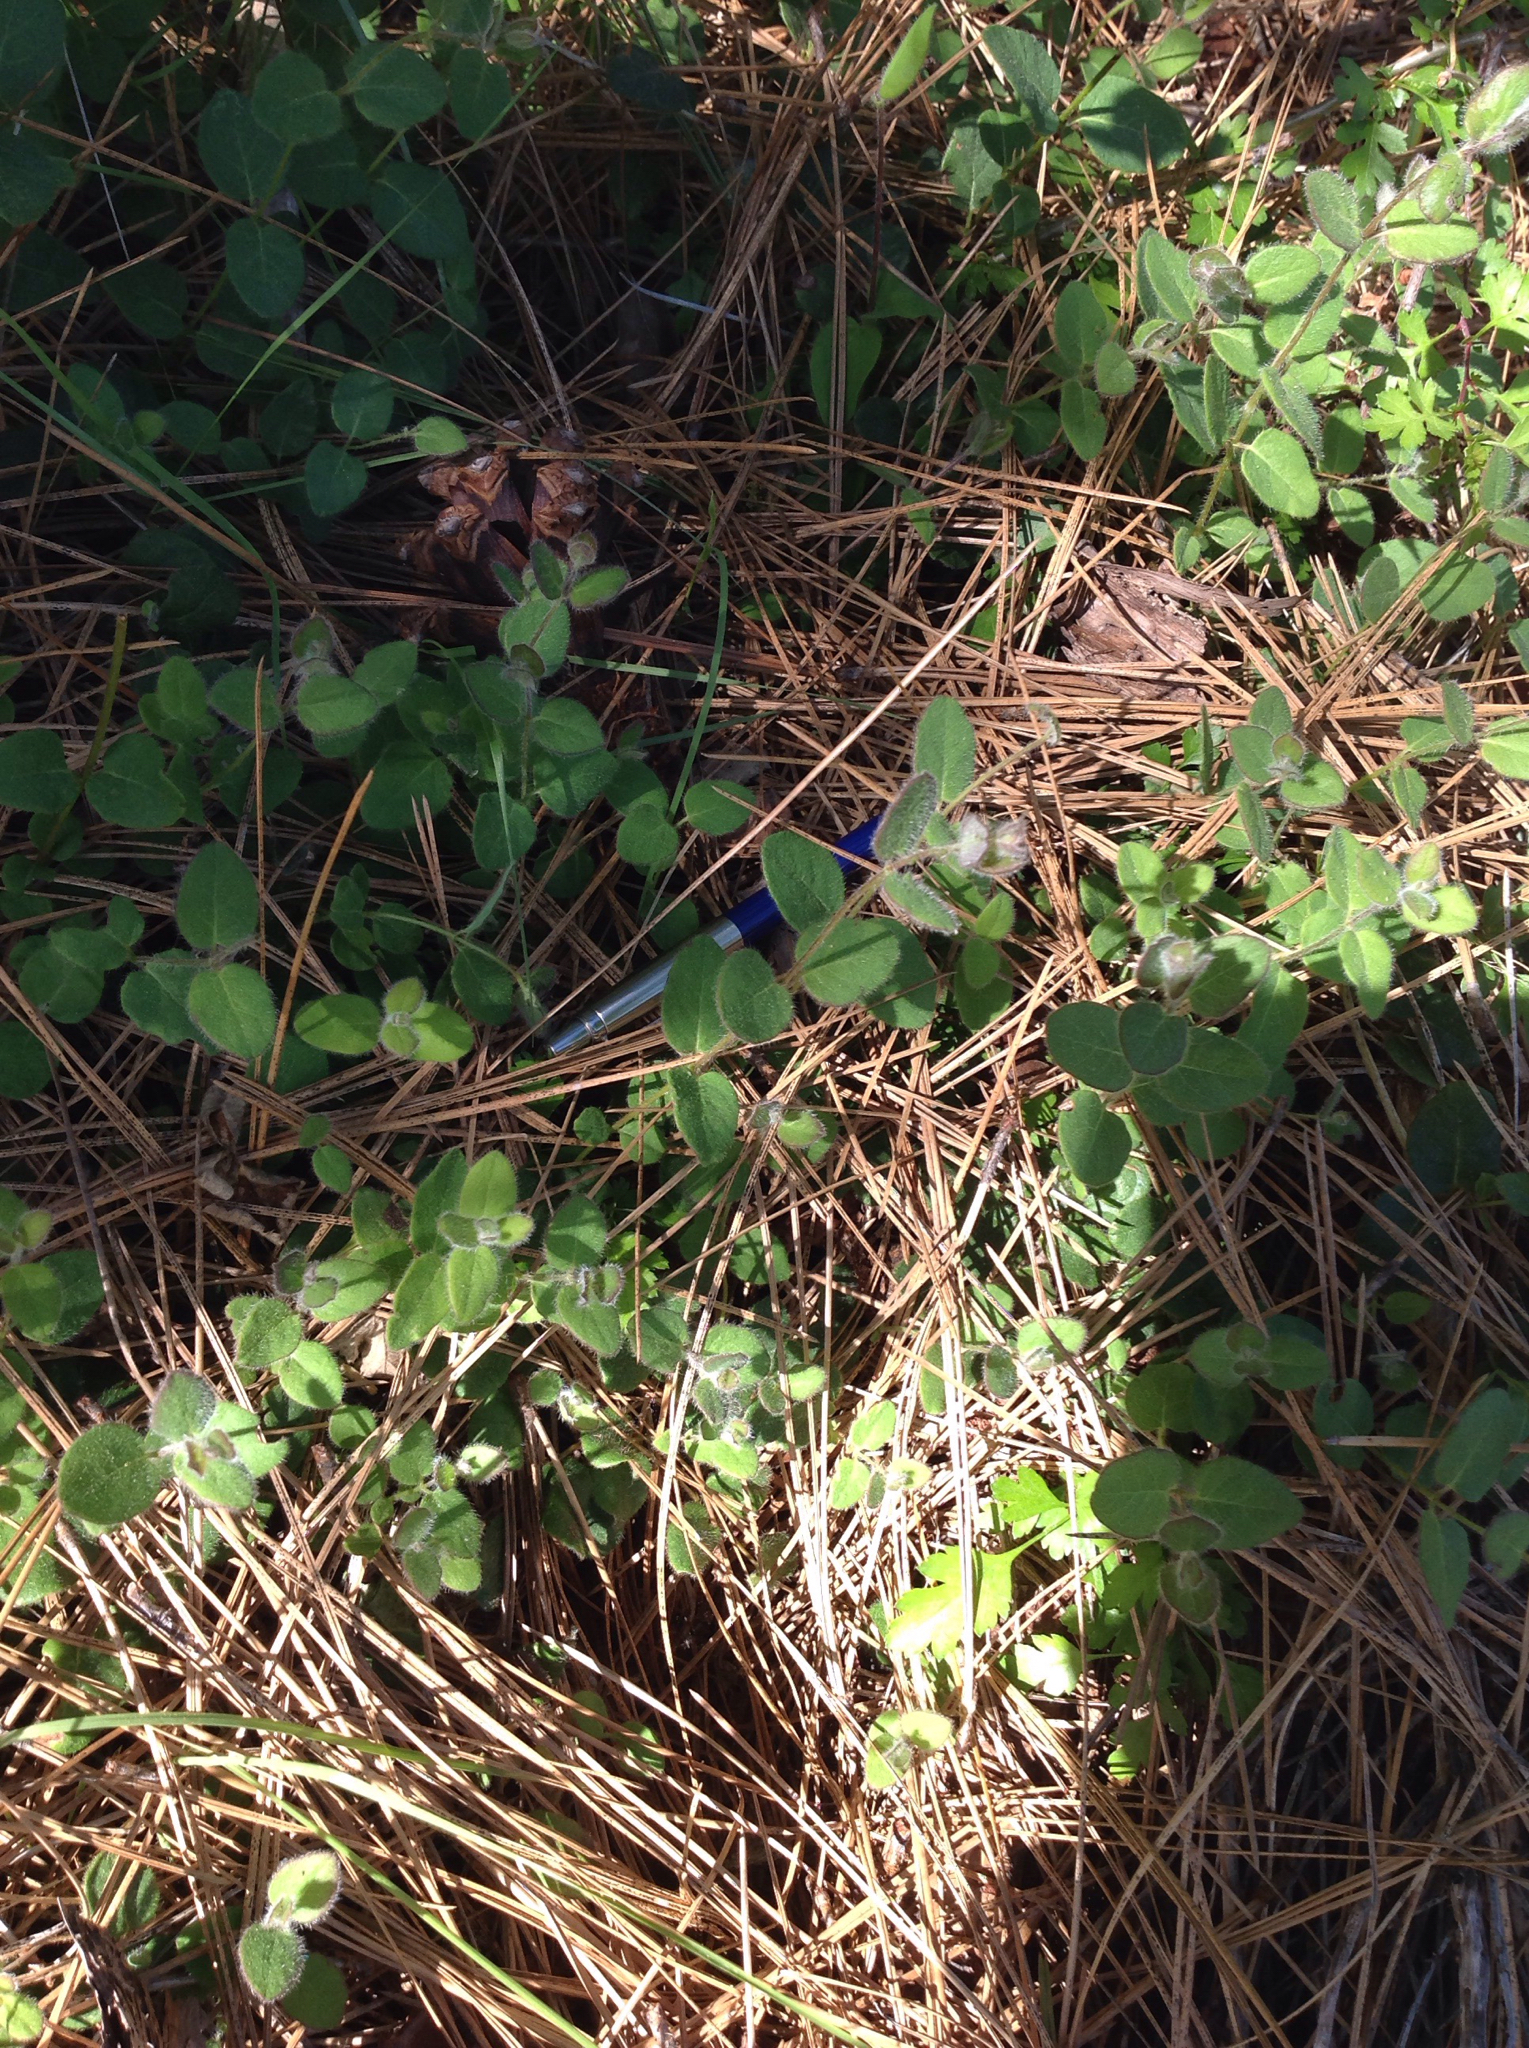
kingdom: Plantae
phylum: Tracheophyta
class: Magnoliopsida
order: Dipsacales
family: Caprifoliaceae
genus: Lonicera
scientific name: Lonicera hispidula
